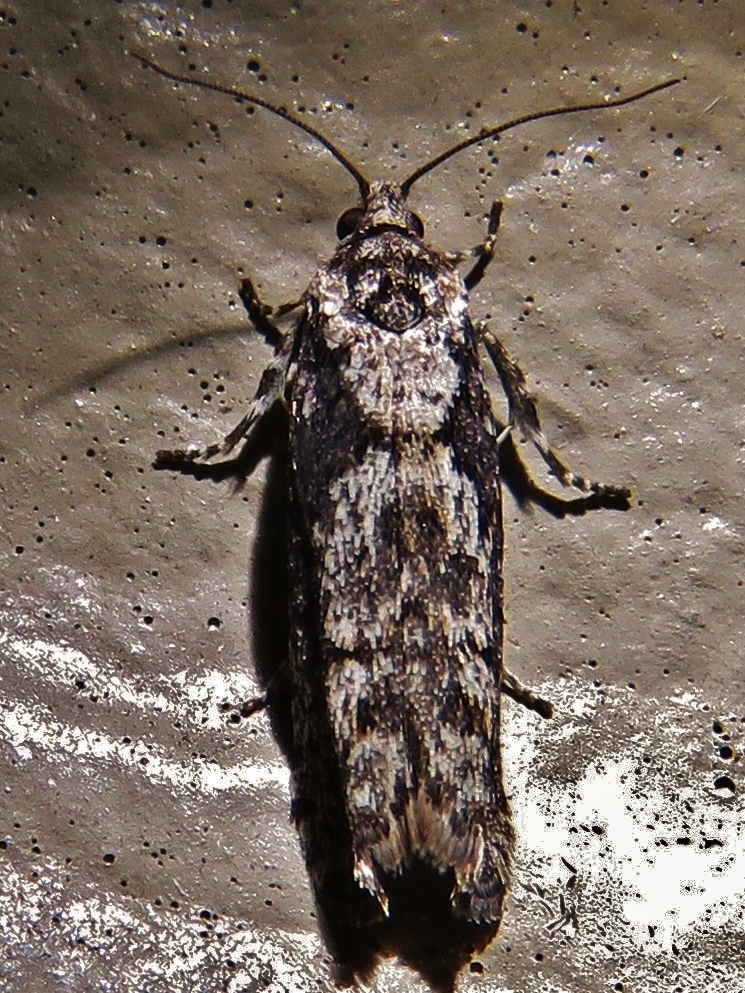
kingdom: Animalia
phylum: Arthropoda
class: Insecta
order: Lepidoptera
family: Tortricidae
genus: Gretchena
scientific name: Gretchena bolliana
